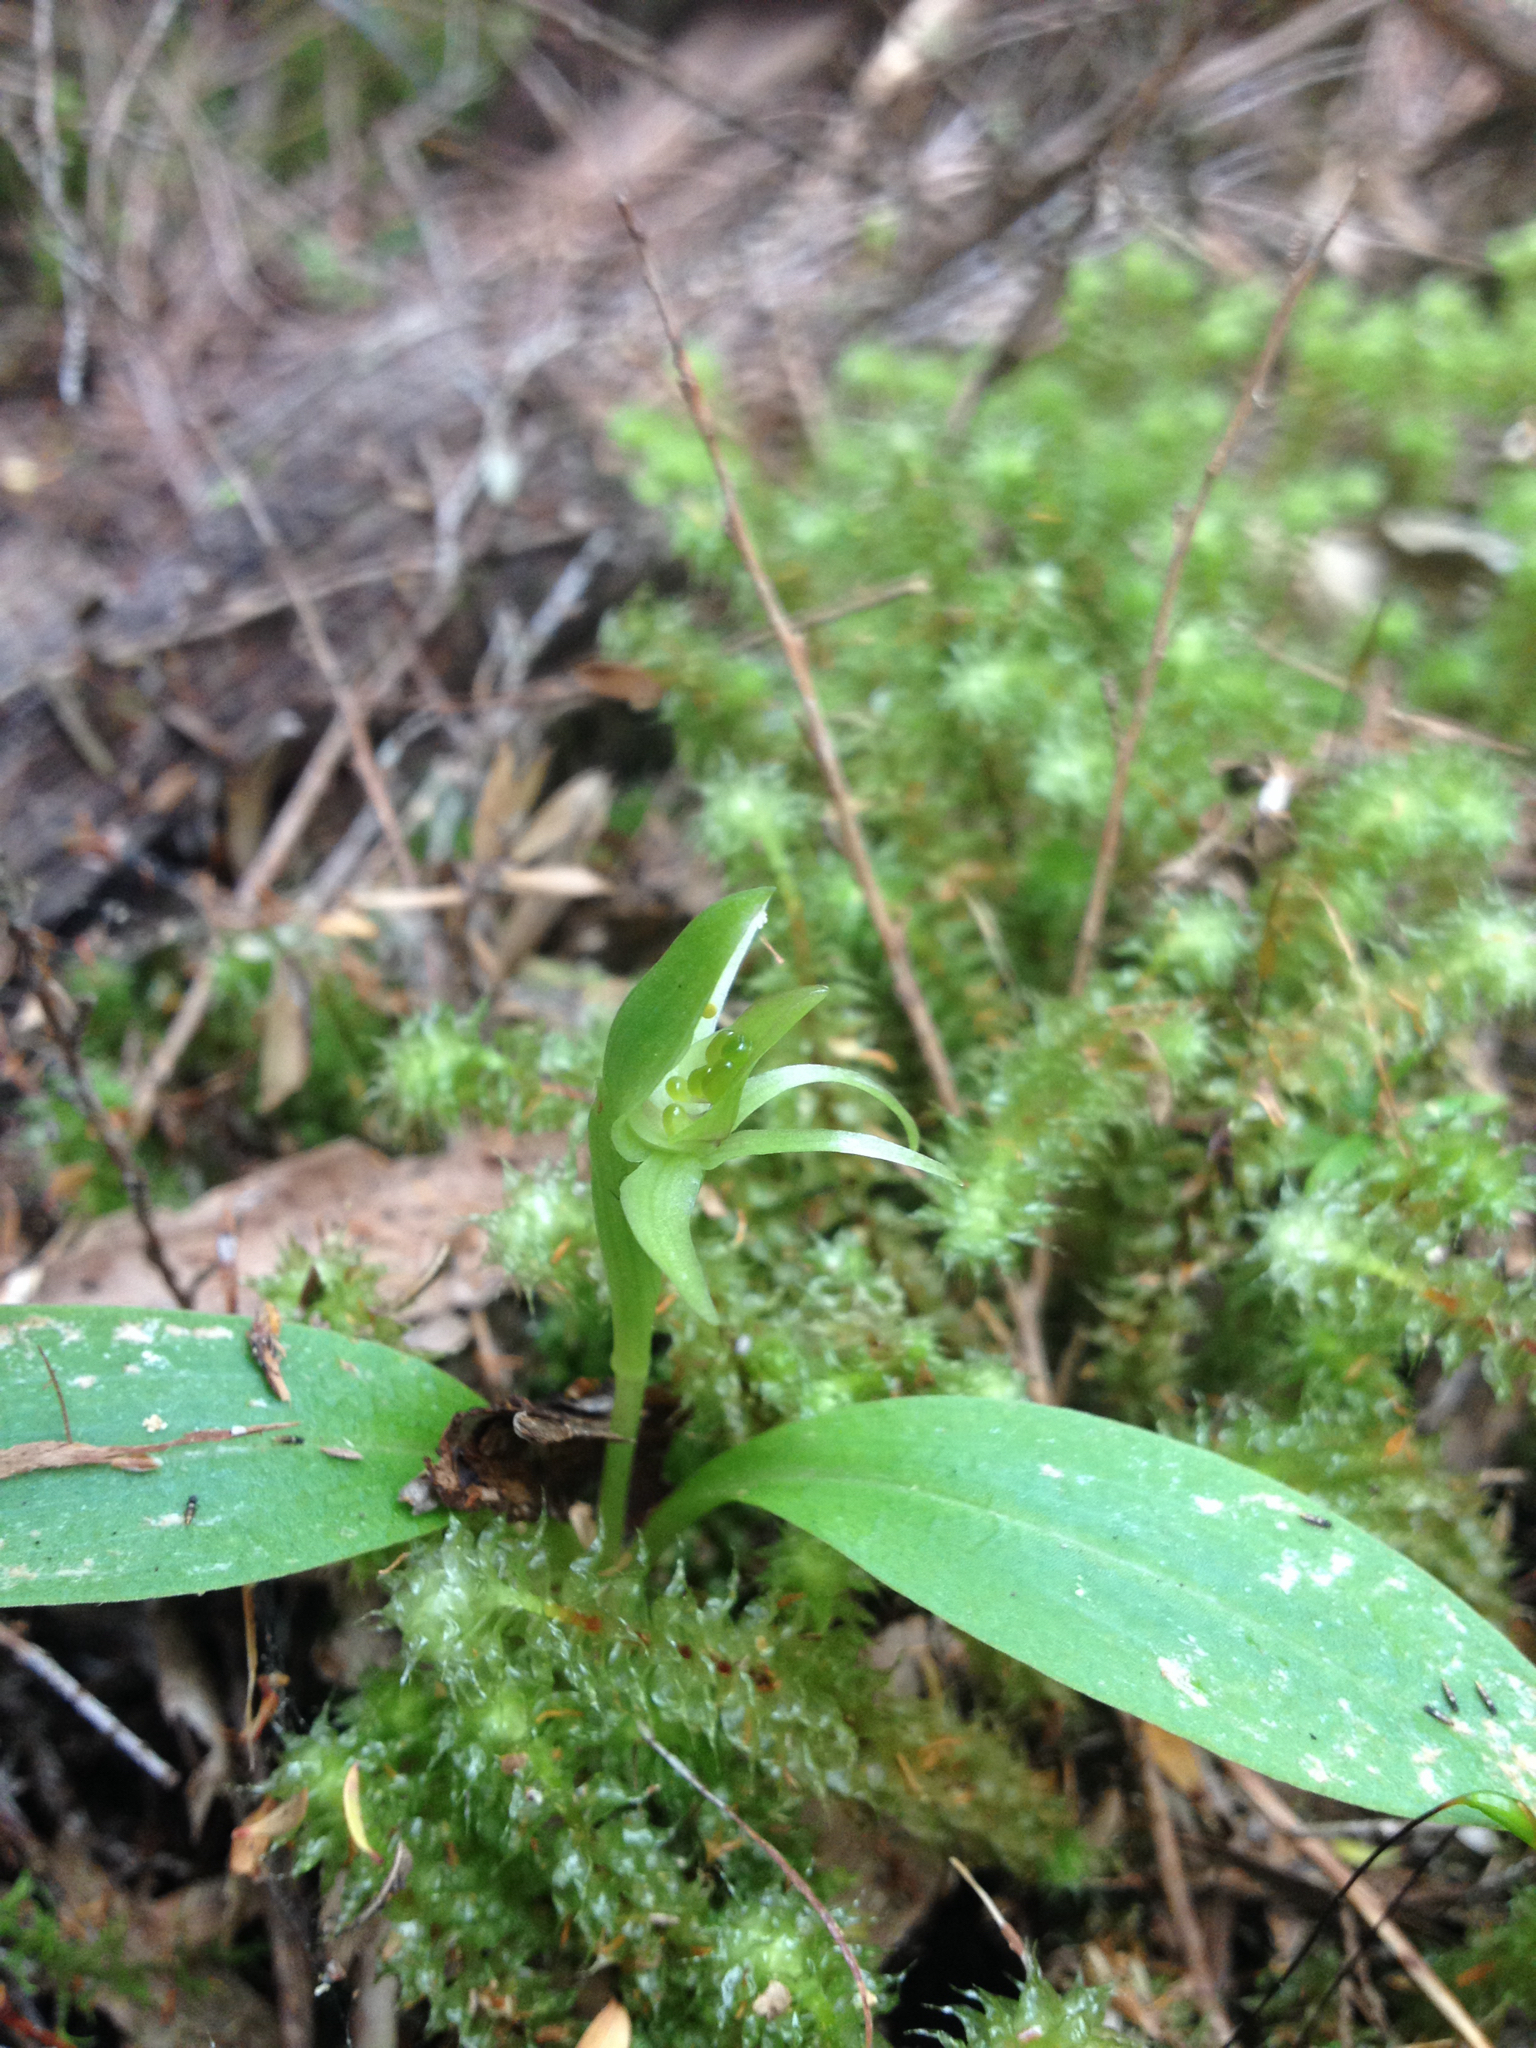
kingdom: Plantae
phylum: Tracheophyta
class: Liliopsida
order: Asparagales
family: Orchidaceae
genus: Chiloglottis
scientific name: Chiloglottis cornuta
